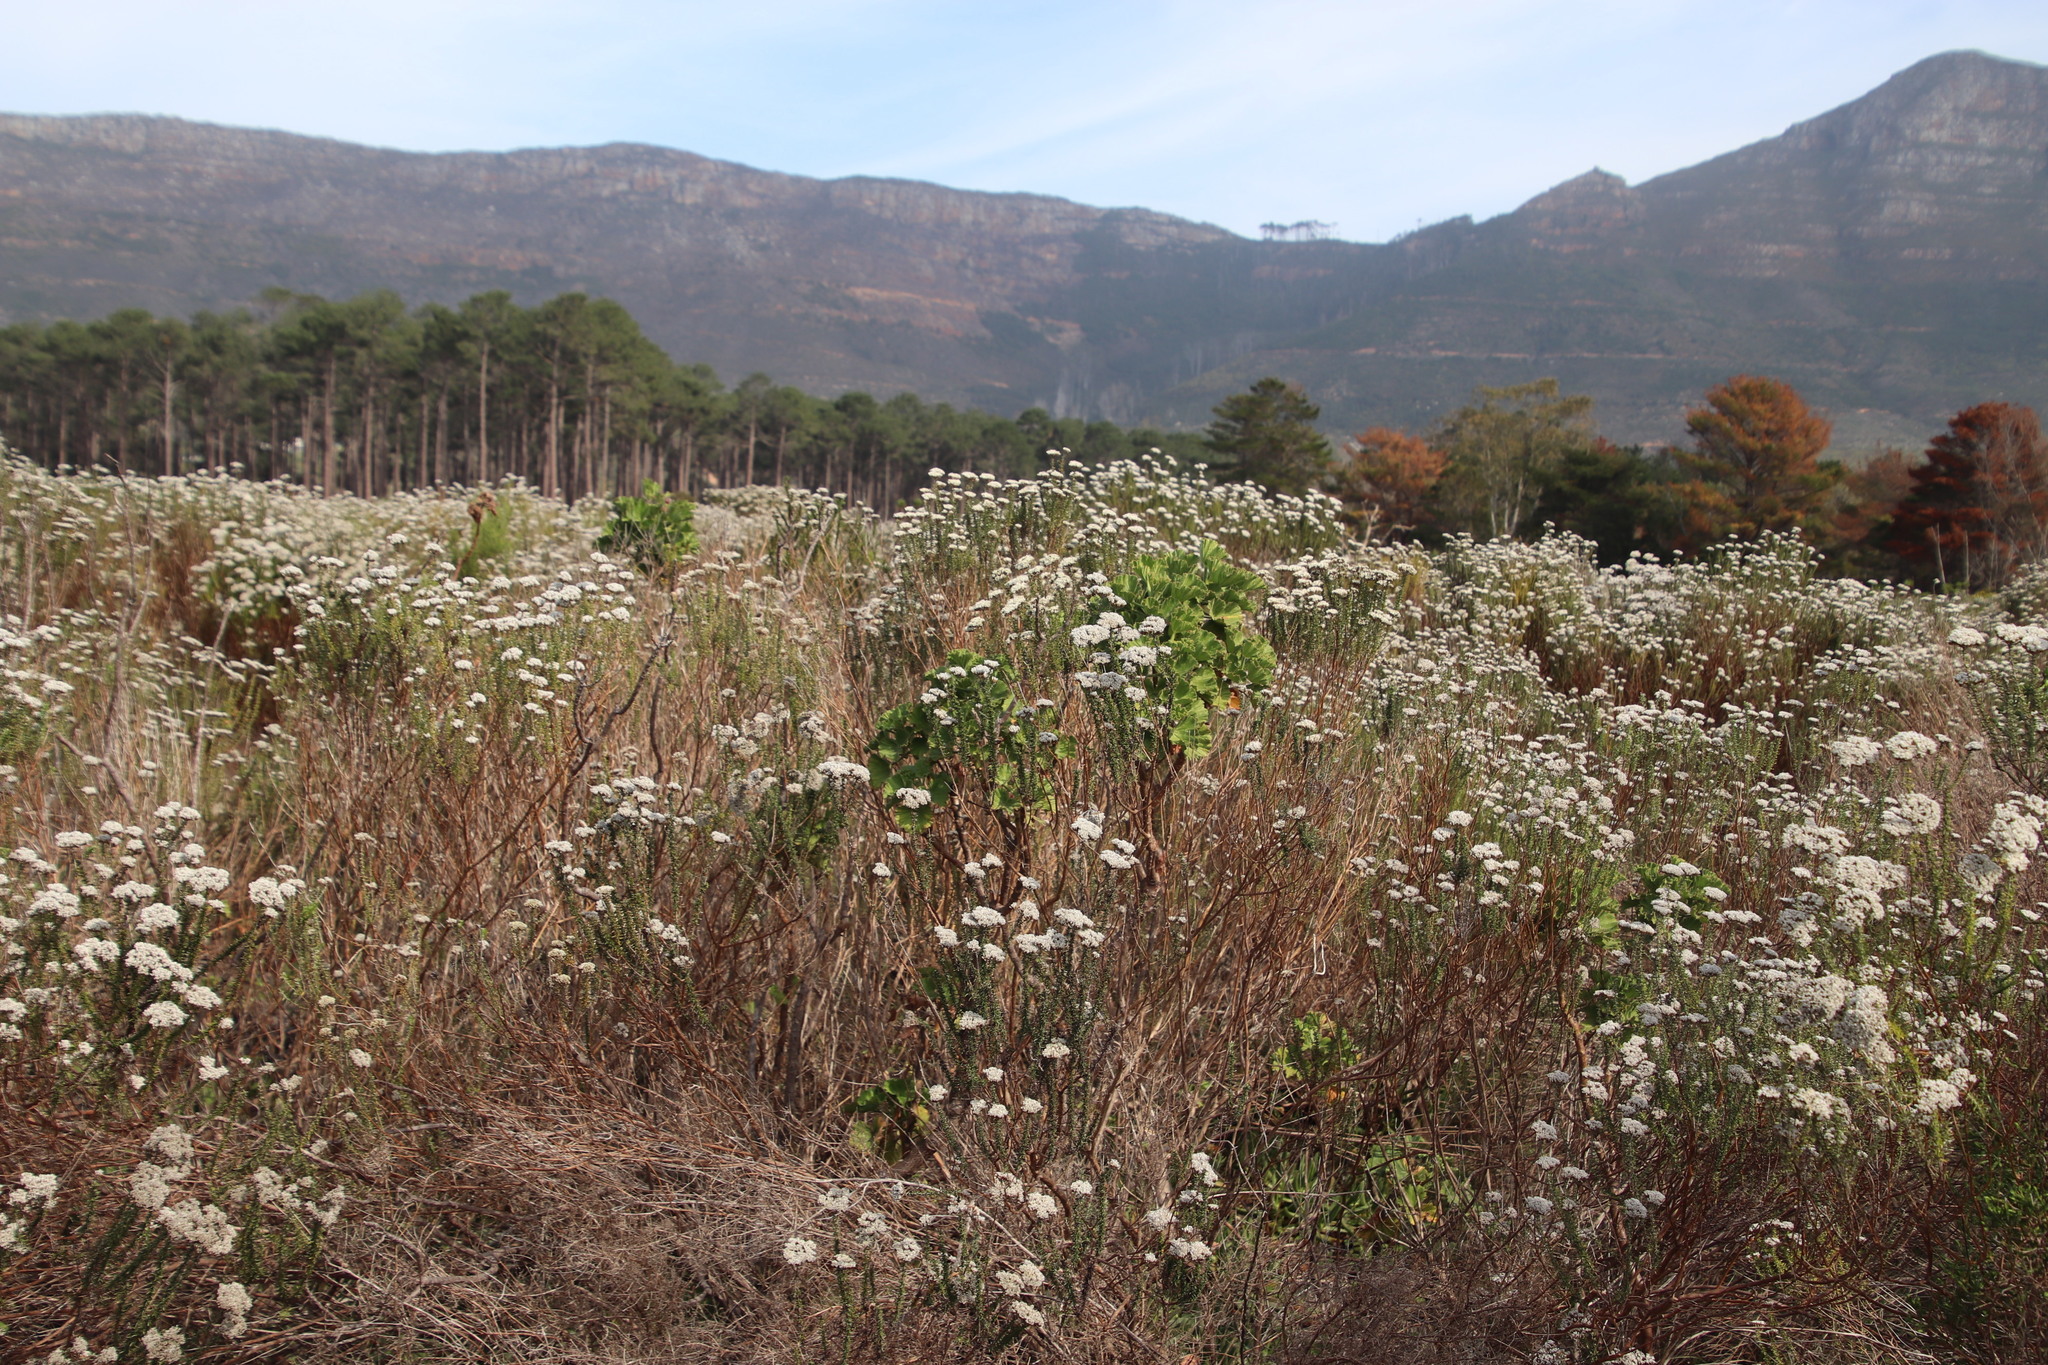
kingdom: Plantae
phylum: Tracheophyta
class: Magnoliopsida
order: Geraniales
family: Geraniaceae
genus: Pelargonium
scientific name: Pelargonium cucullatum
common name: Tree pelargonium
